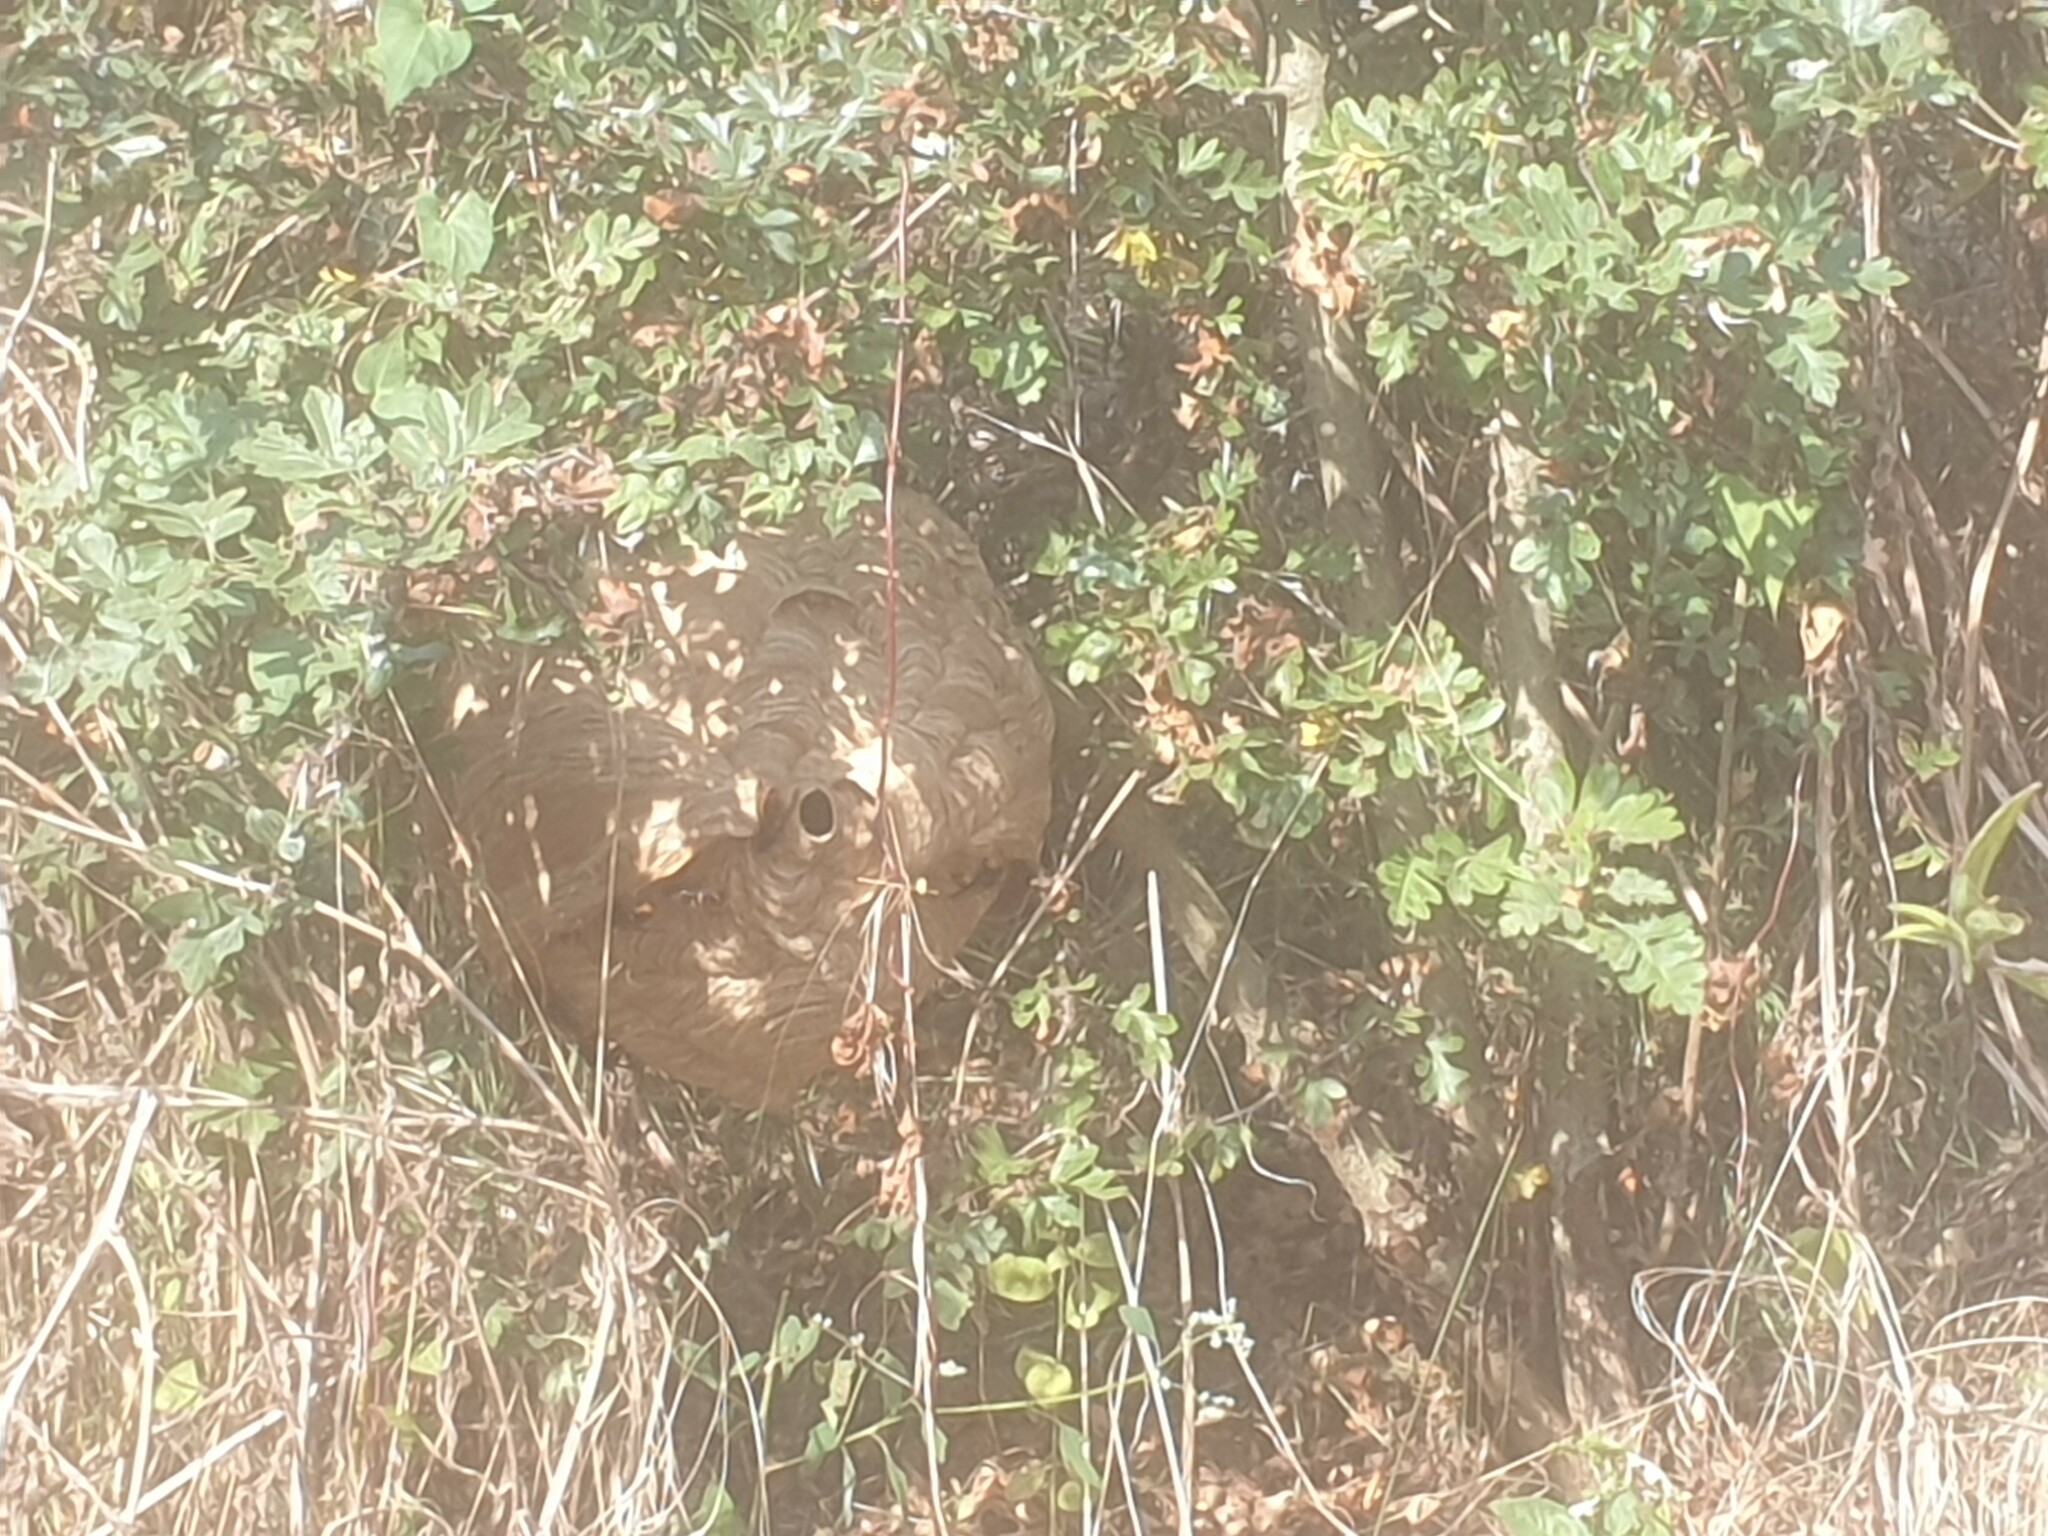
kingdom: Animalia
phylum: Arthropoda
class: Insecta
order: Hymenoptera
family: Vespidae
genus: Vespa
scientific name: Vespa velutina
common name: Asian hornet
